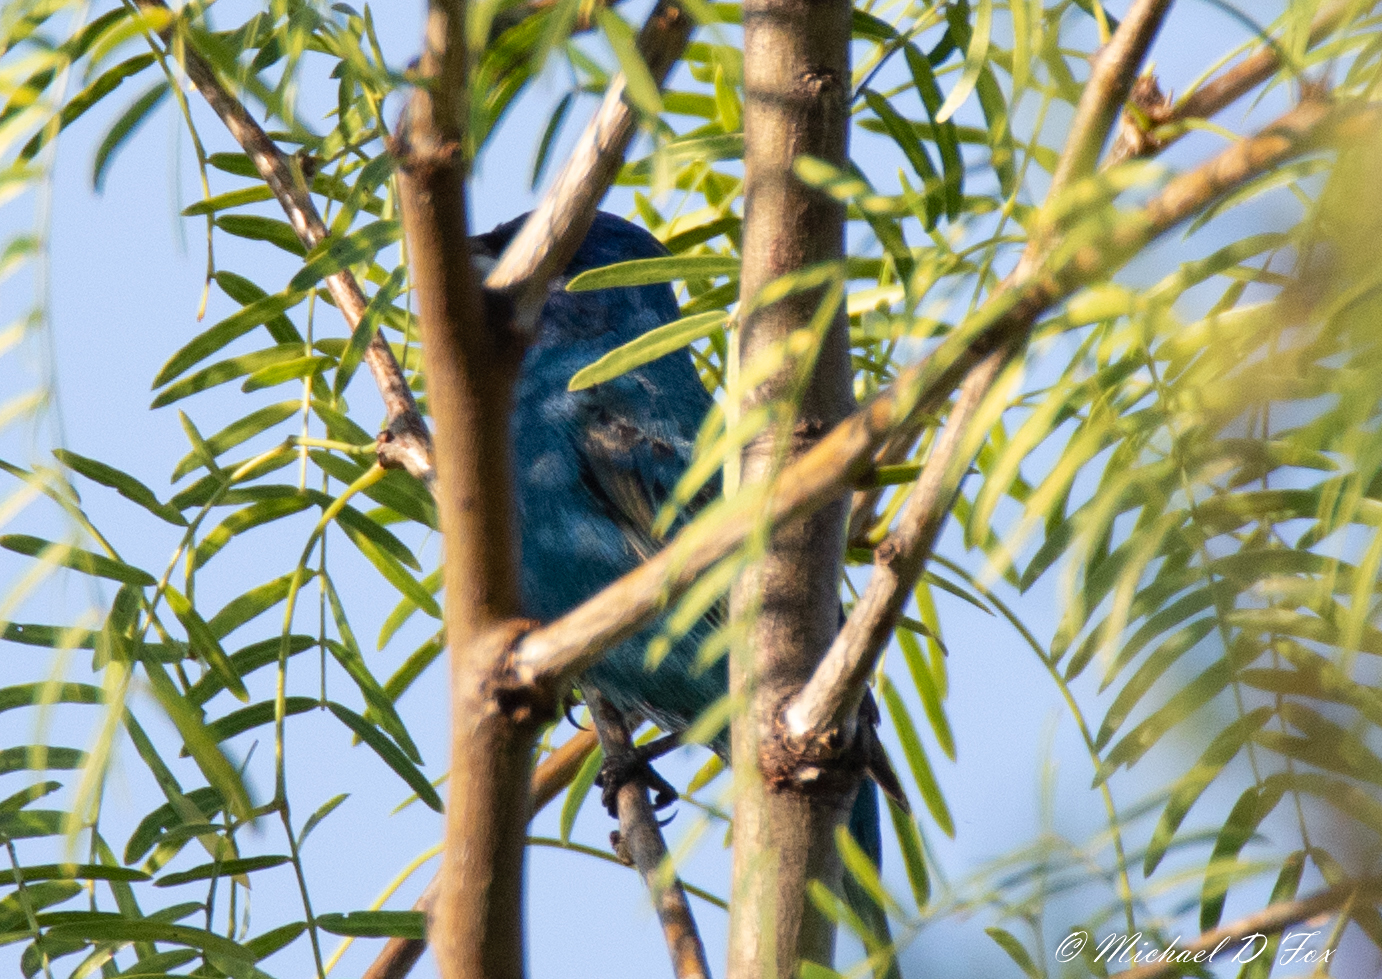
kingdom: Animalia
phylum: Chordata
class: Aves
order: Passeriformes
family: Cardinalidae
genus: Passerina
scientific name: Passerina cyanea
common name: Indigo bunting
